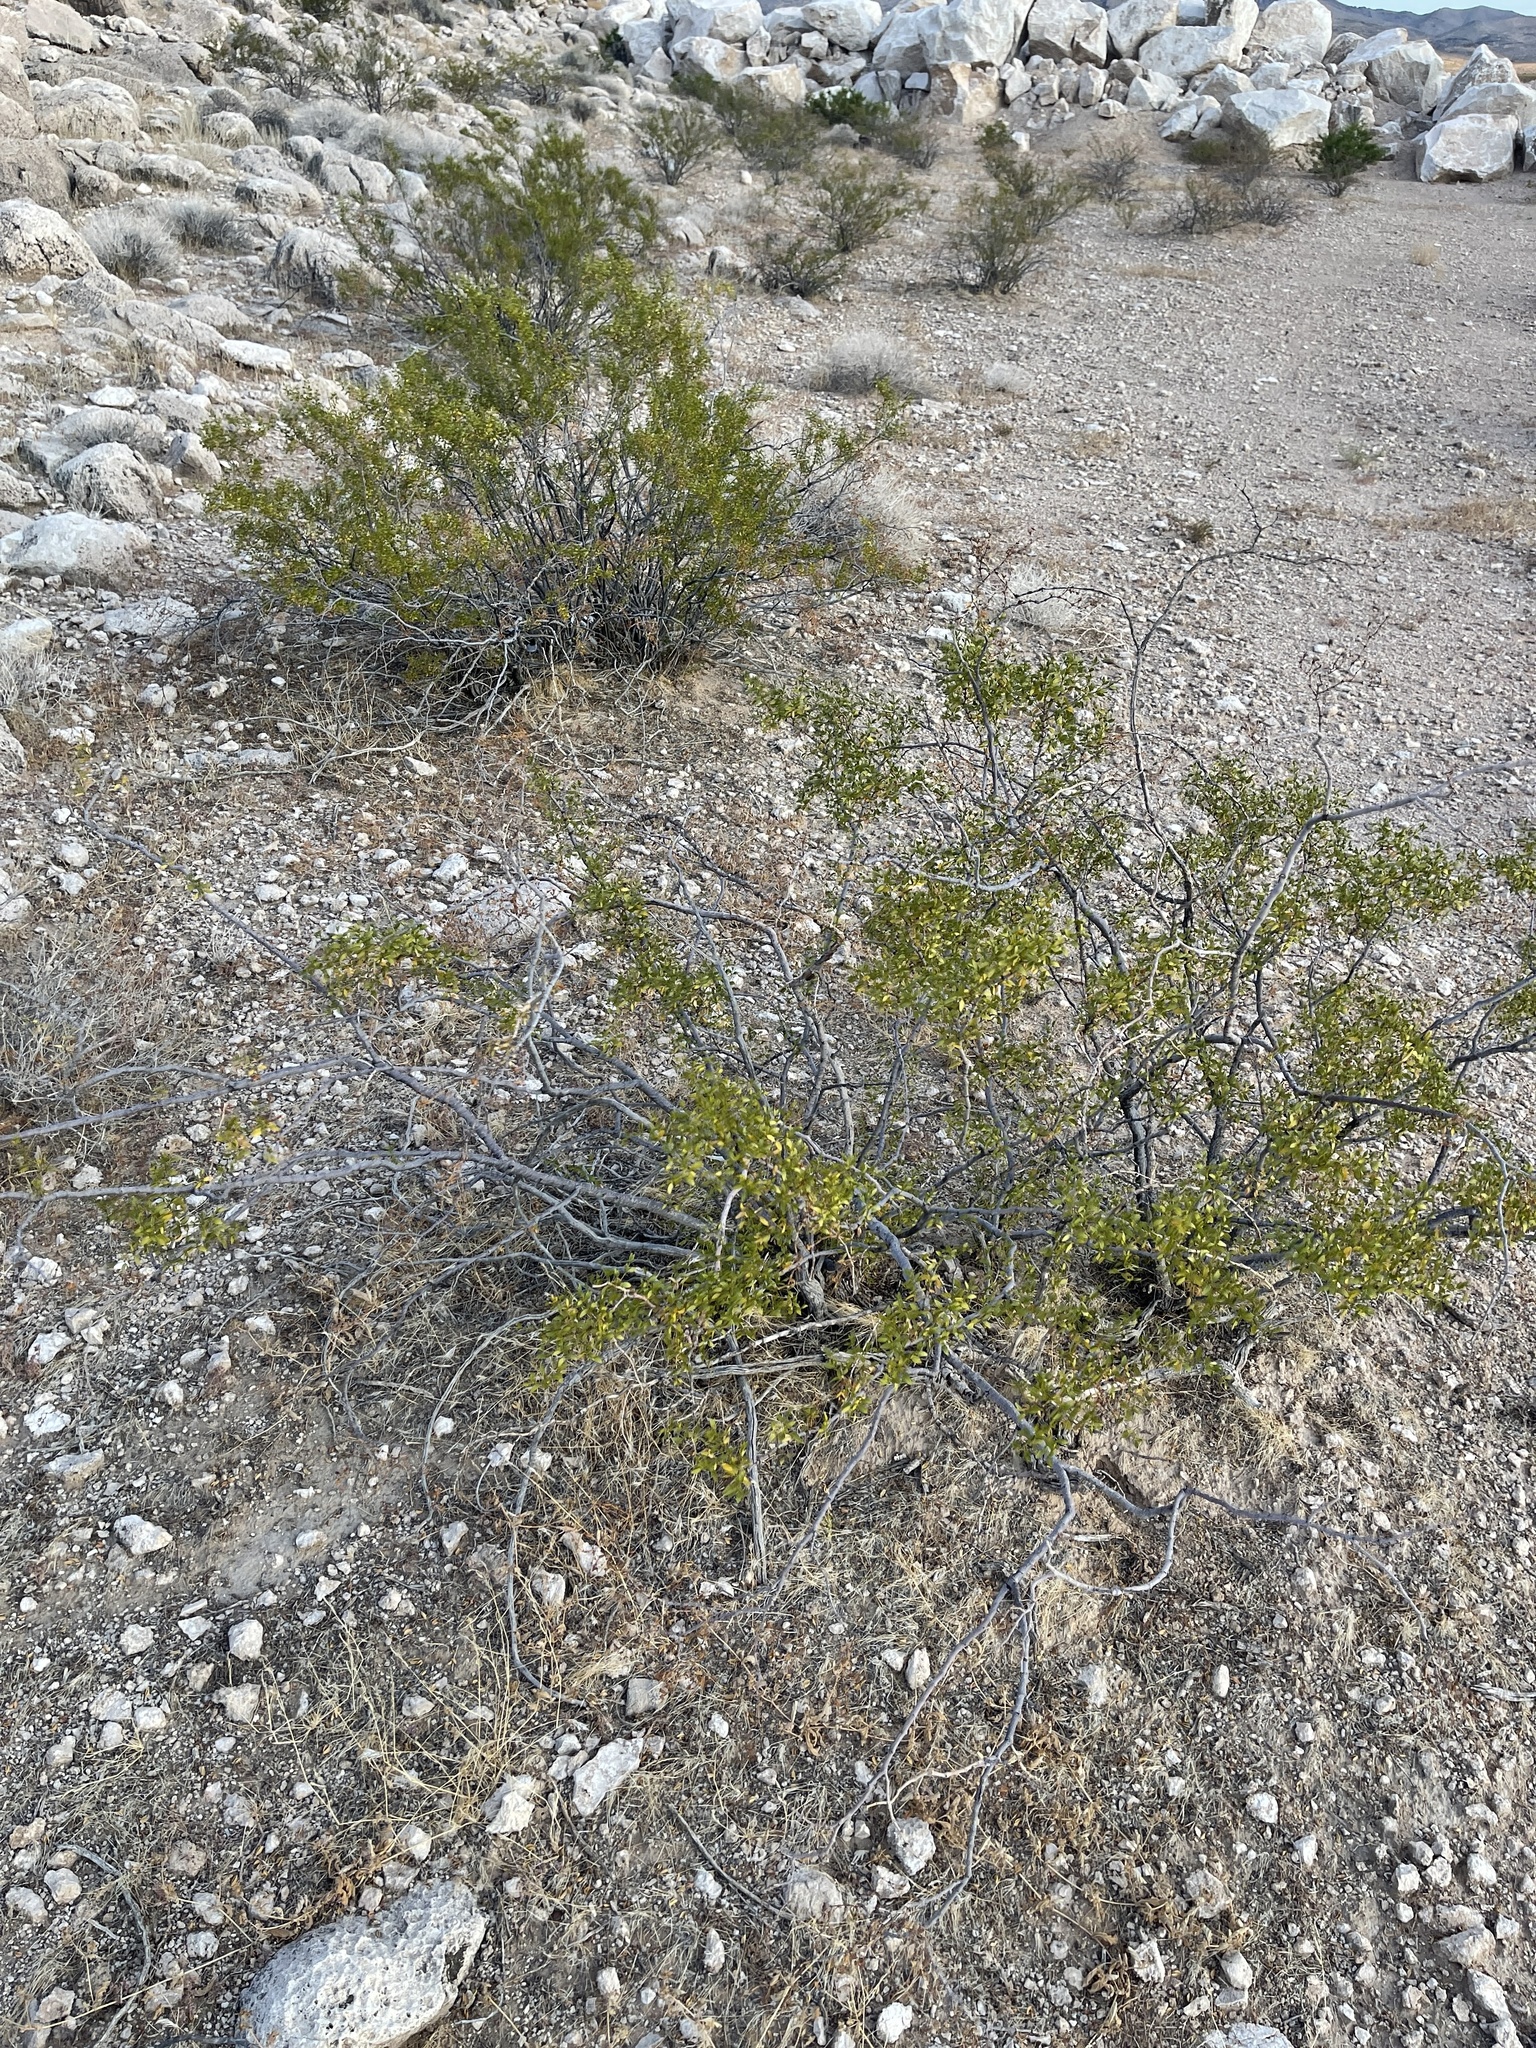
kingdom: Plantae
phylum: Tracheophyta
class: Magnoliopsida
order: Zygophyllales
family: Zygophyllaceae
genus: Larrea
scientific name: Larrea tridentata
